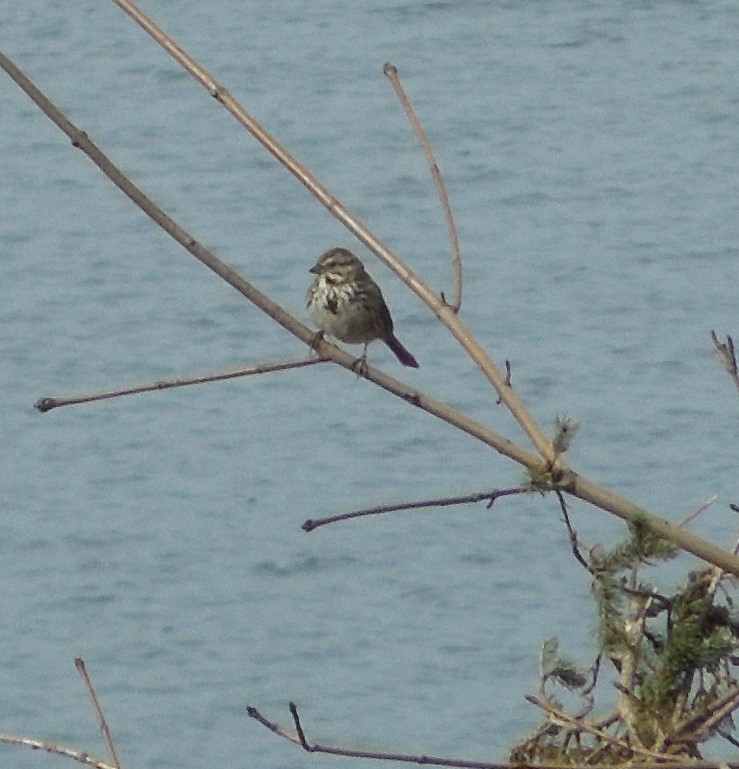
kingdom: Animalia
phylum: Chordata
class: Aves
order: Passeriformes
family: Passerellidae
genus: Melospiza
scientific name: Melospiza melodia
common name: Song sparrow
